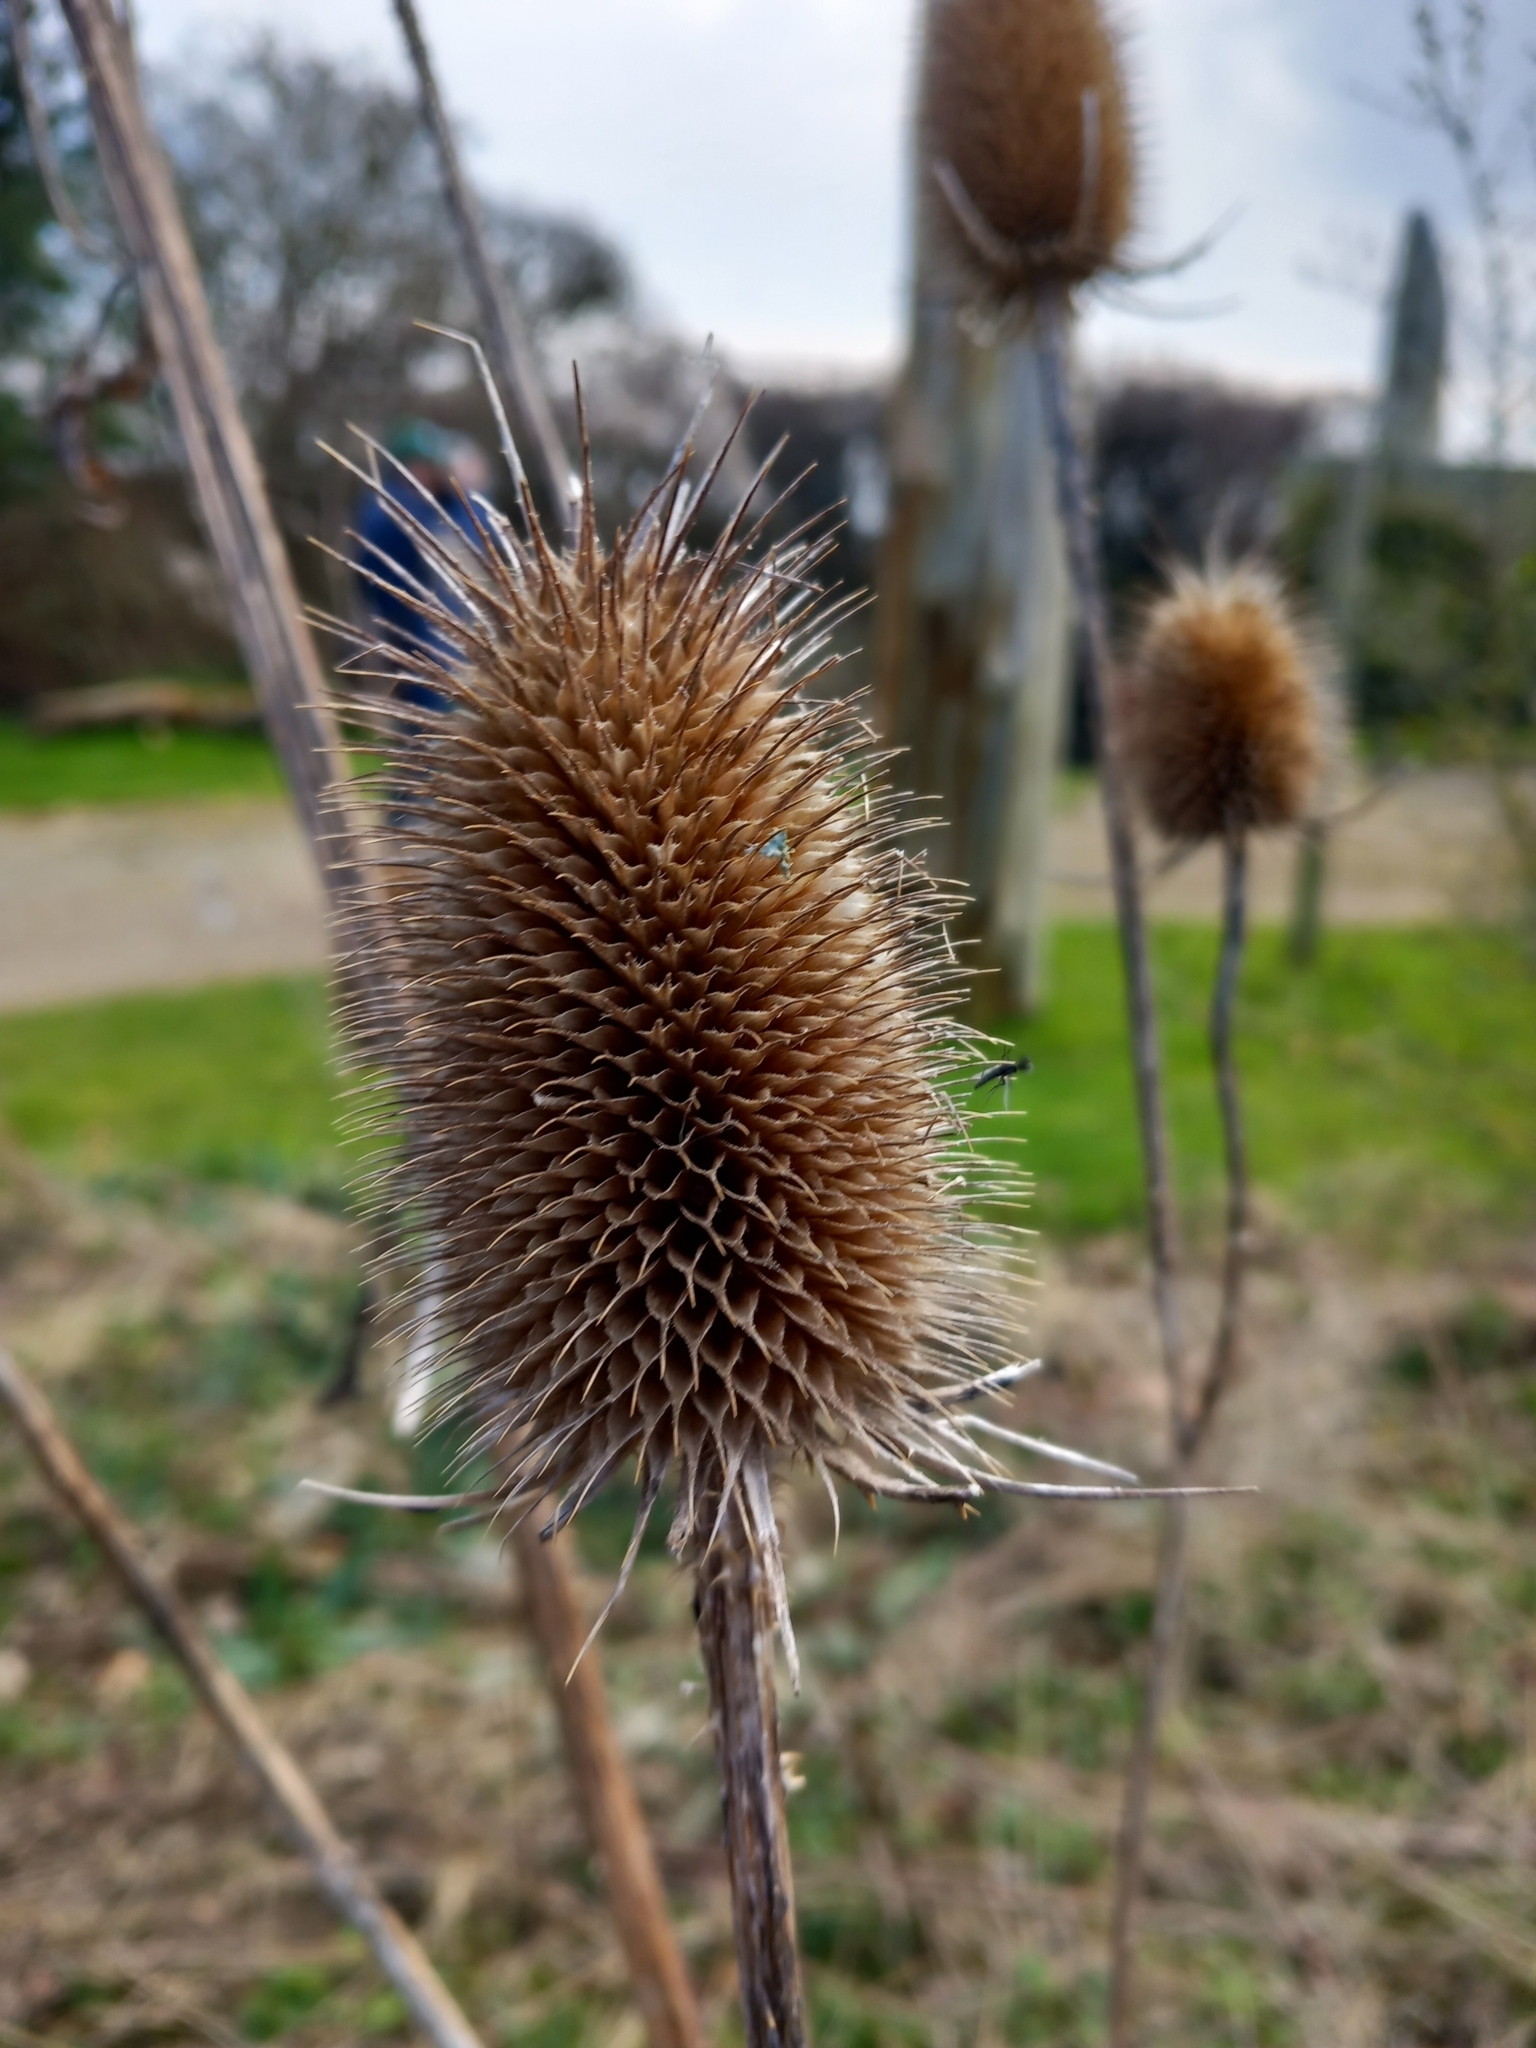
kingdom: Plantae
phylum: Tracheophyta
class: Magnoliopsida
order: Dipsacales
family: Caprifoliaceae
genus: Dipsacus
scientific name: Dipsacus fullonum
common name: Teasel
